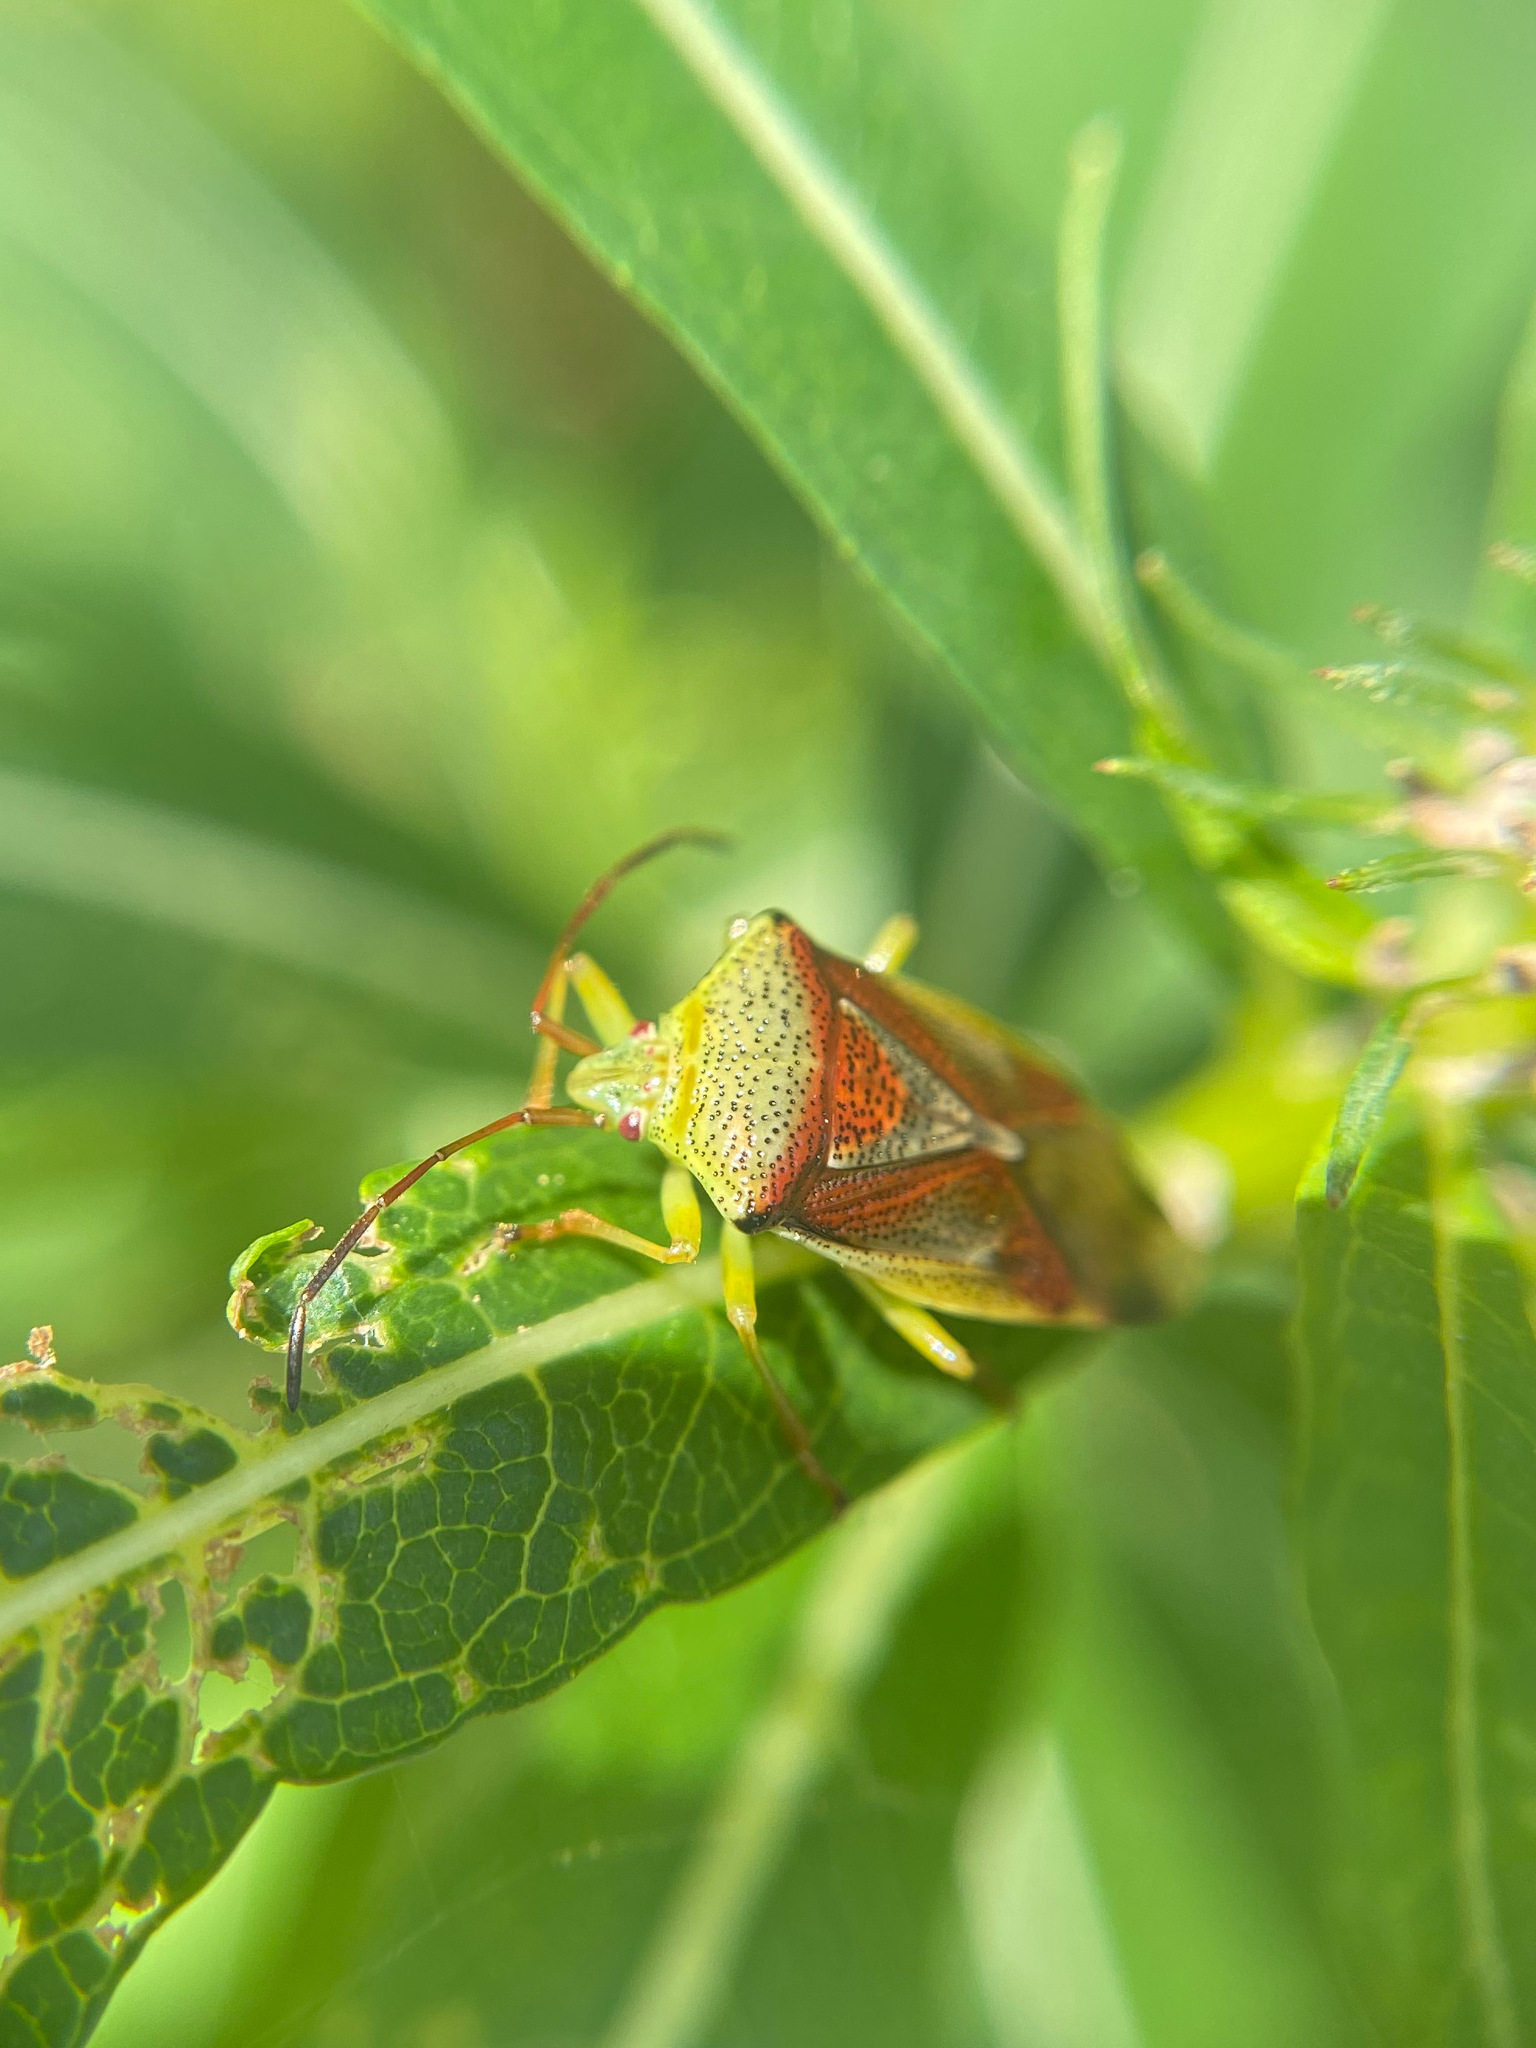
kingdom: Animalia
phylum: Arthropoda
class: Insecta
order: Hemiptera
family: Acanthosomatidae
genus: Elasmostethus
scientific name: Elasmostethus cruciatus
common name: Red-cross shield bug
